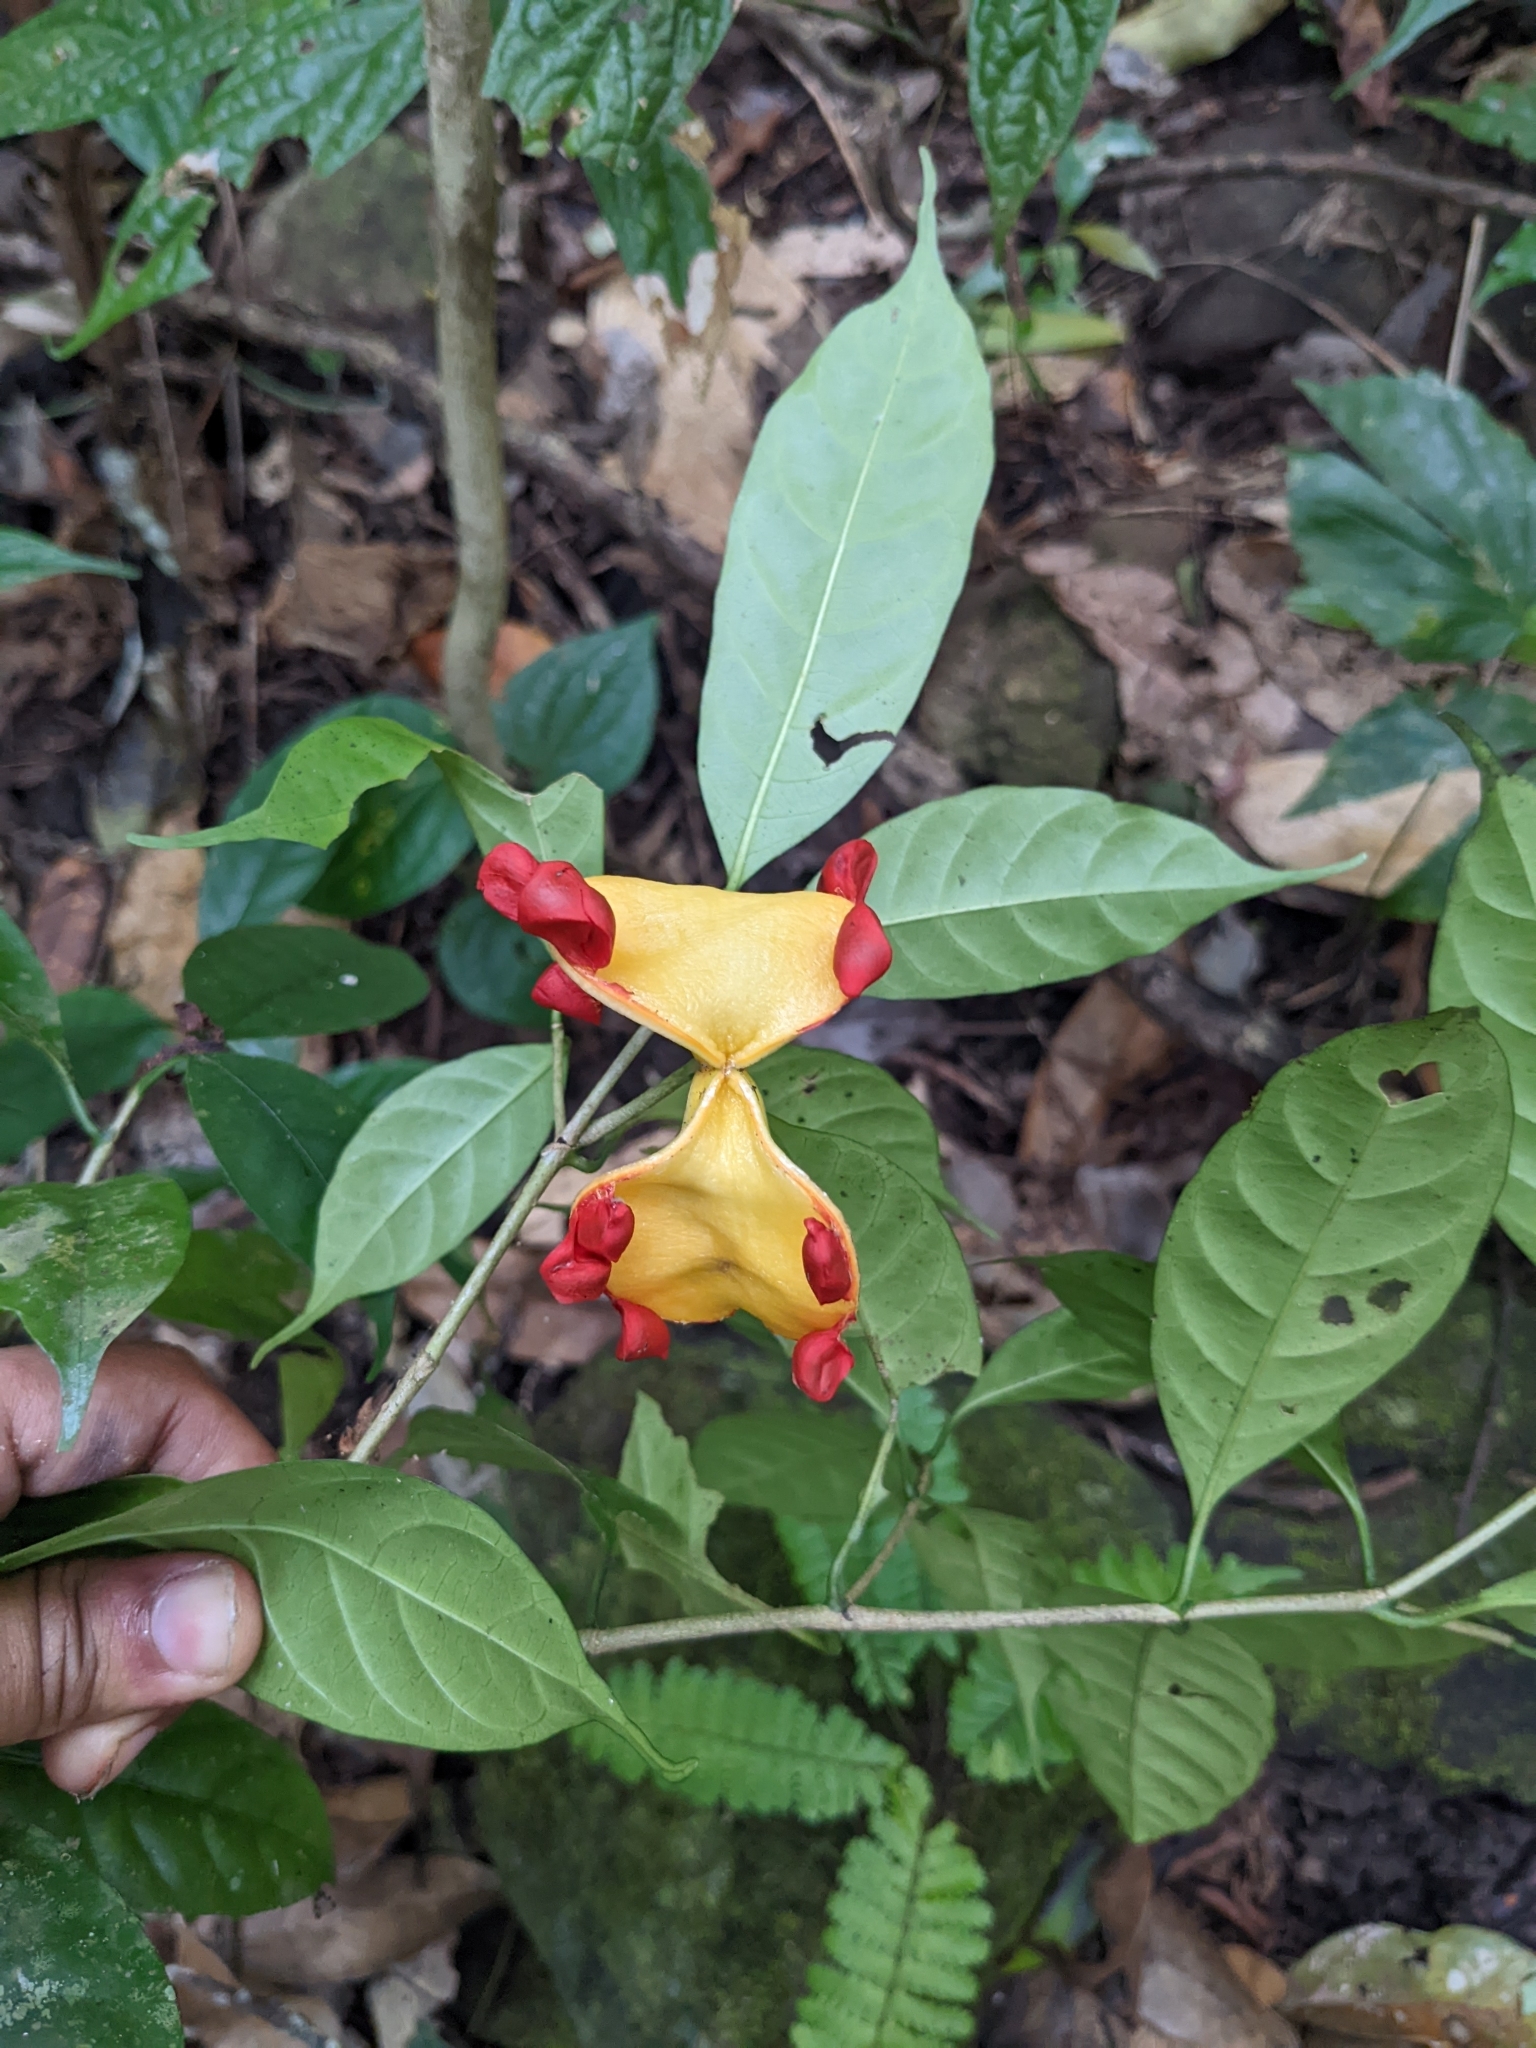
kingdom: Plantae
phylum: Tracheophyta
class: Magnoliopsida
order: Gentianales
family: Apocynaceae
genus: Tabernaemontana
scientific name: Tabernaemontana gamblei
